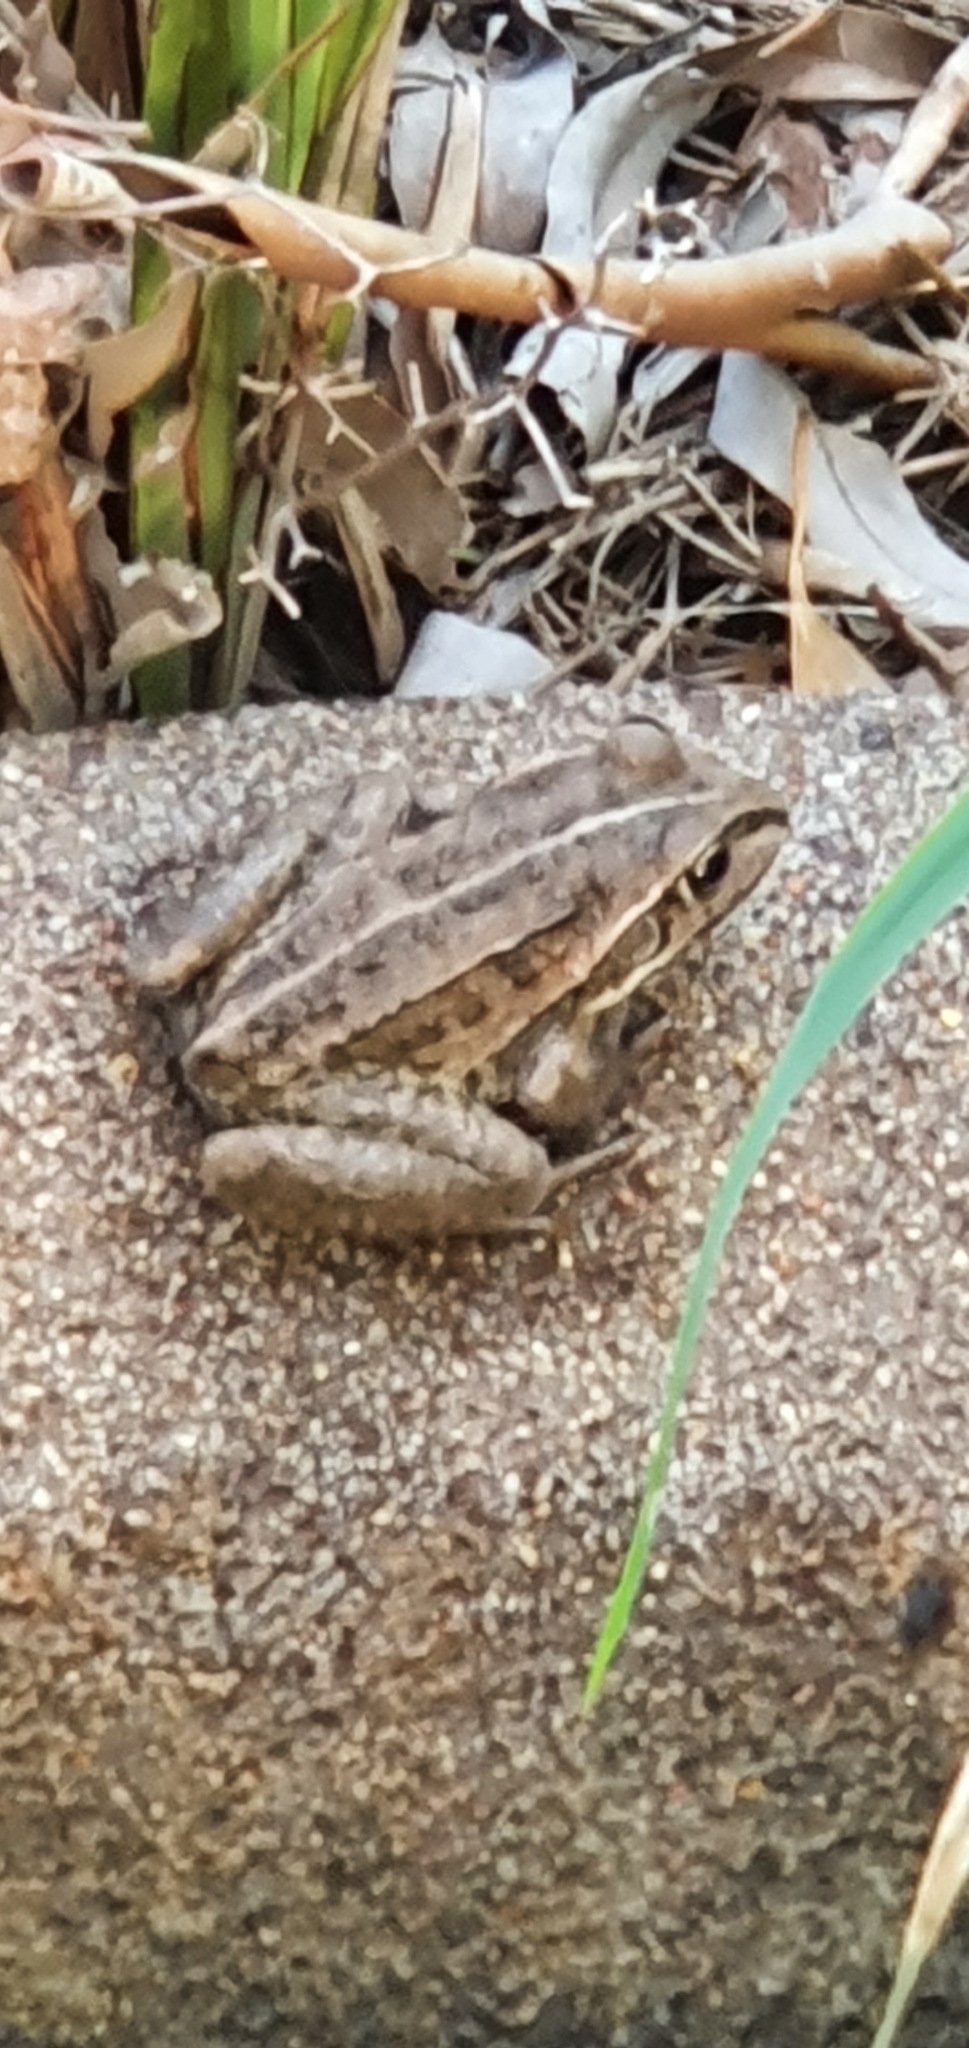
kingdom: Animalia
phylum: Chordata
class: Amphibia
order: Anura
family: Pelodryadidae
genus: Ranoidea
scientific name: Ranoidea alboguttata
